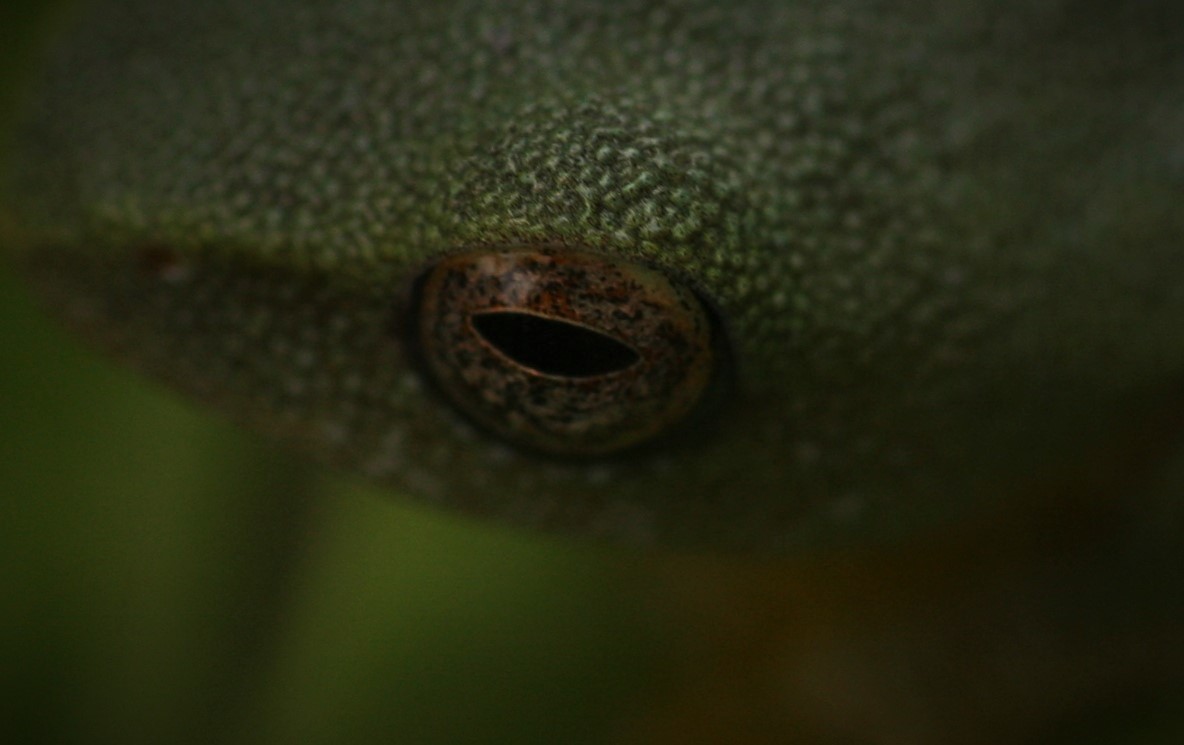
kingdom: Animalia
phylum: Chordata
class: Amphibia
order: Anura
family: Rhacophoridae
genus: Raorchestes
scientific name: Raorchestes jayarami
